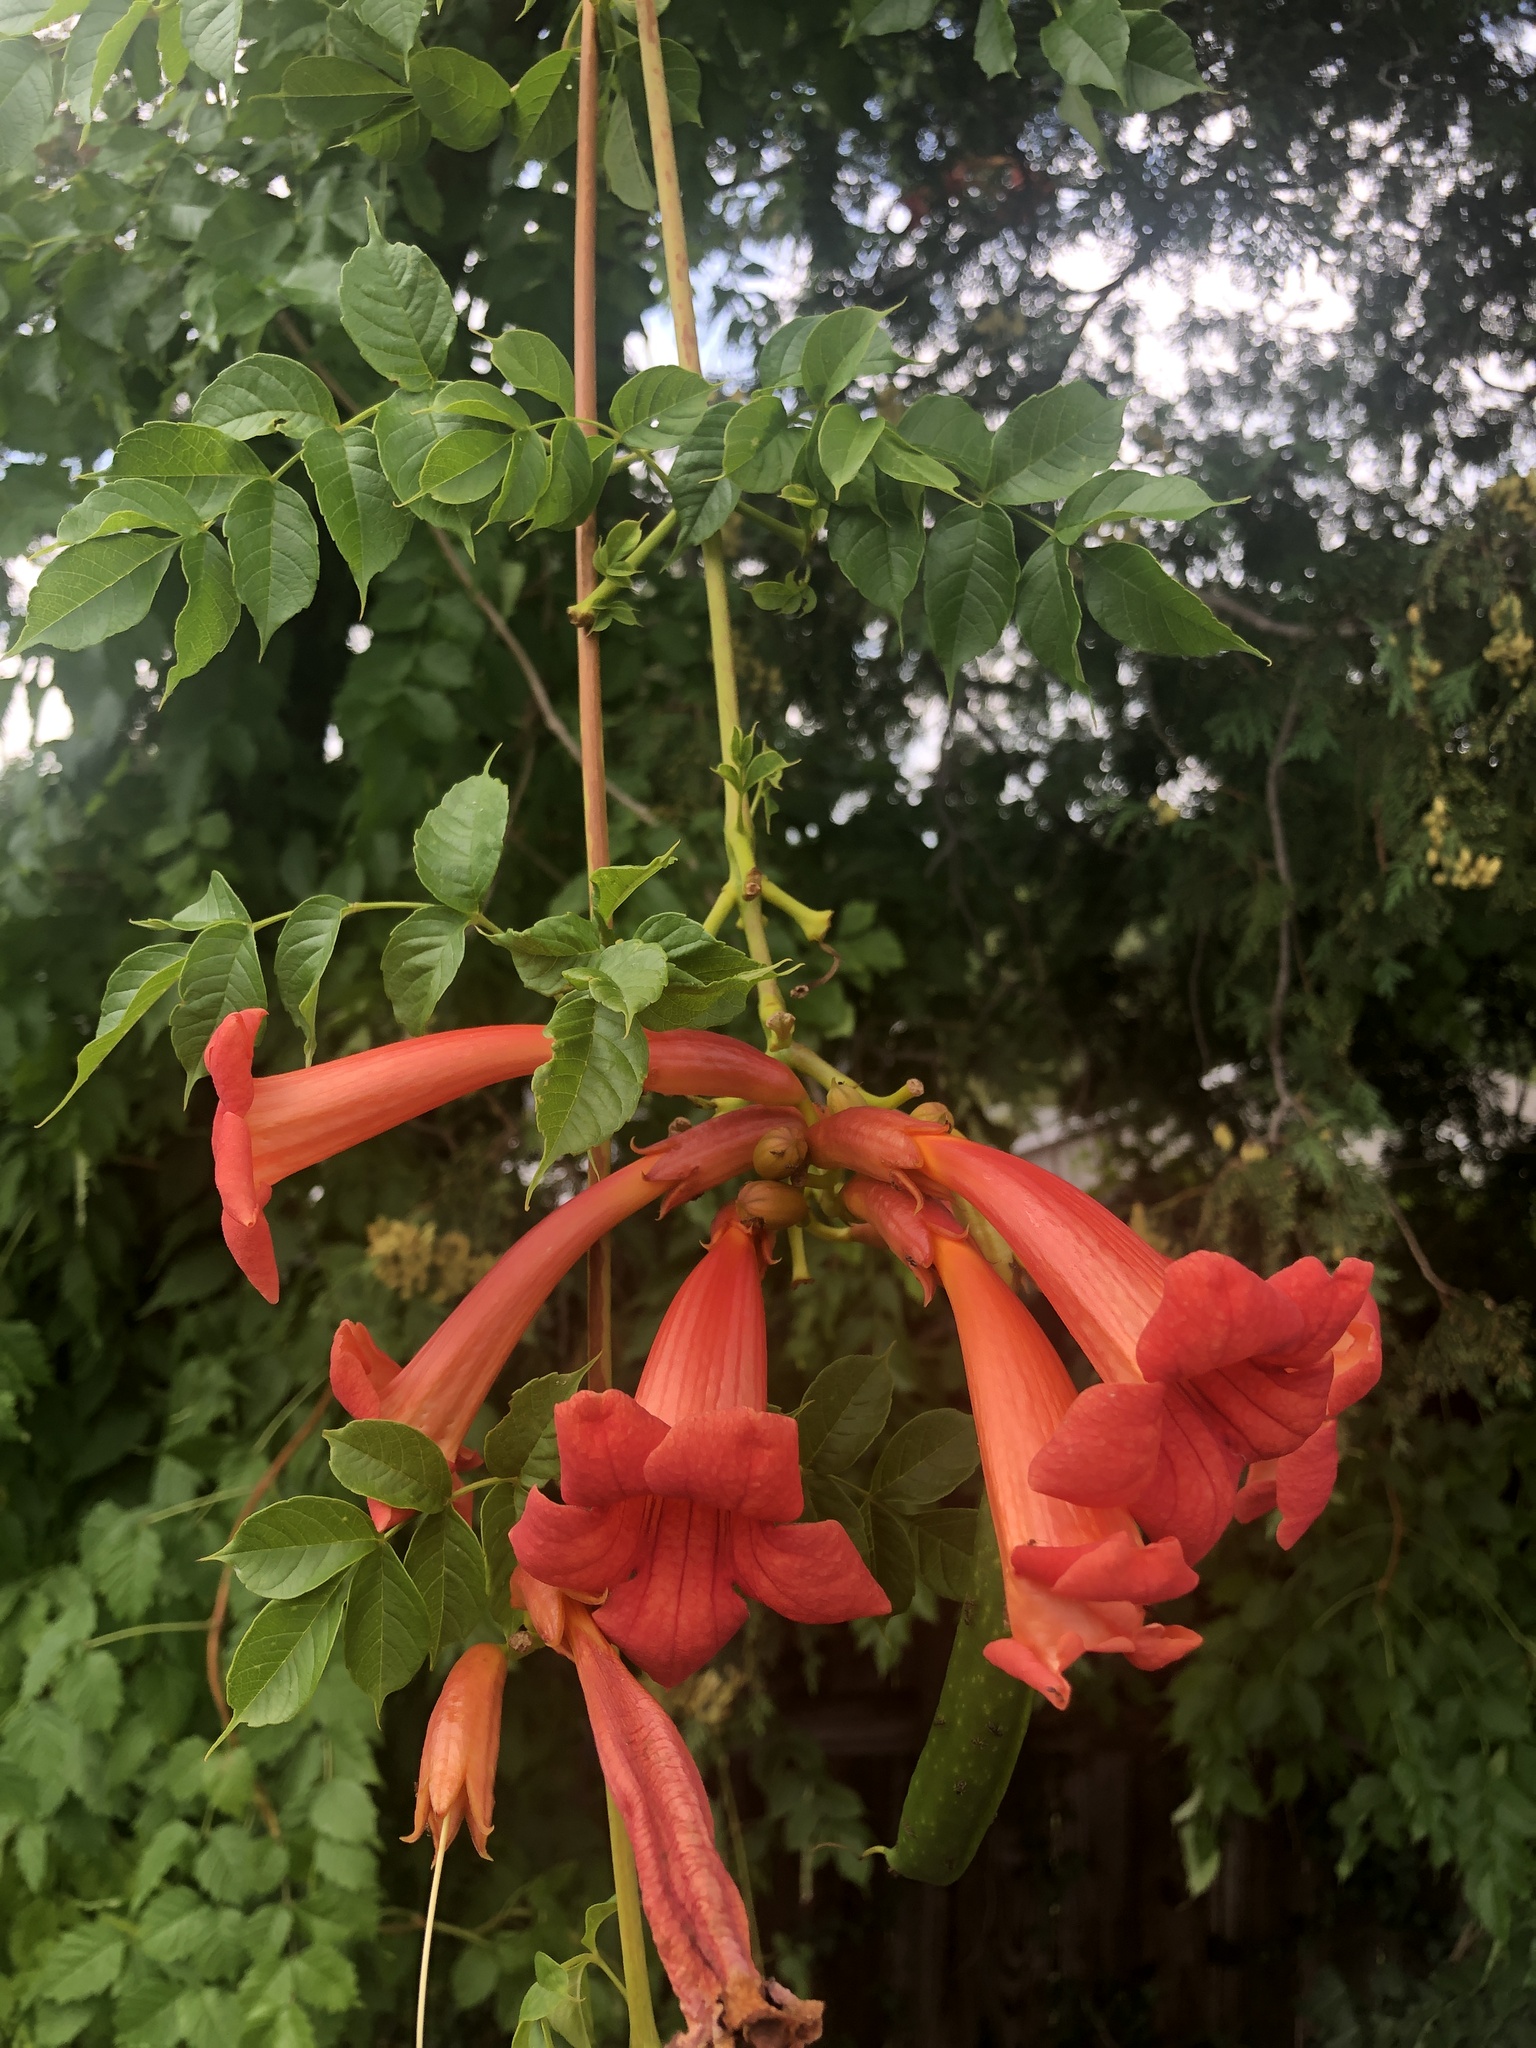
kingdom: Plantae
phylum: Tracheophyta
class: Magnoliopsida
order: Lamiales
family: Bignoniaceae
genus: Campsis
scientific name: Campsis radicans
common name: Trumpet-creeper
